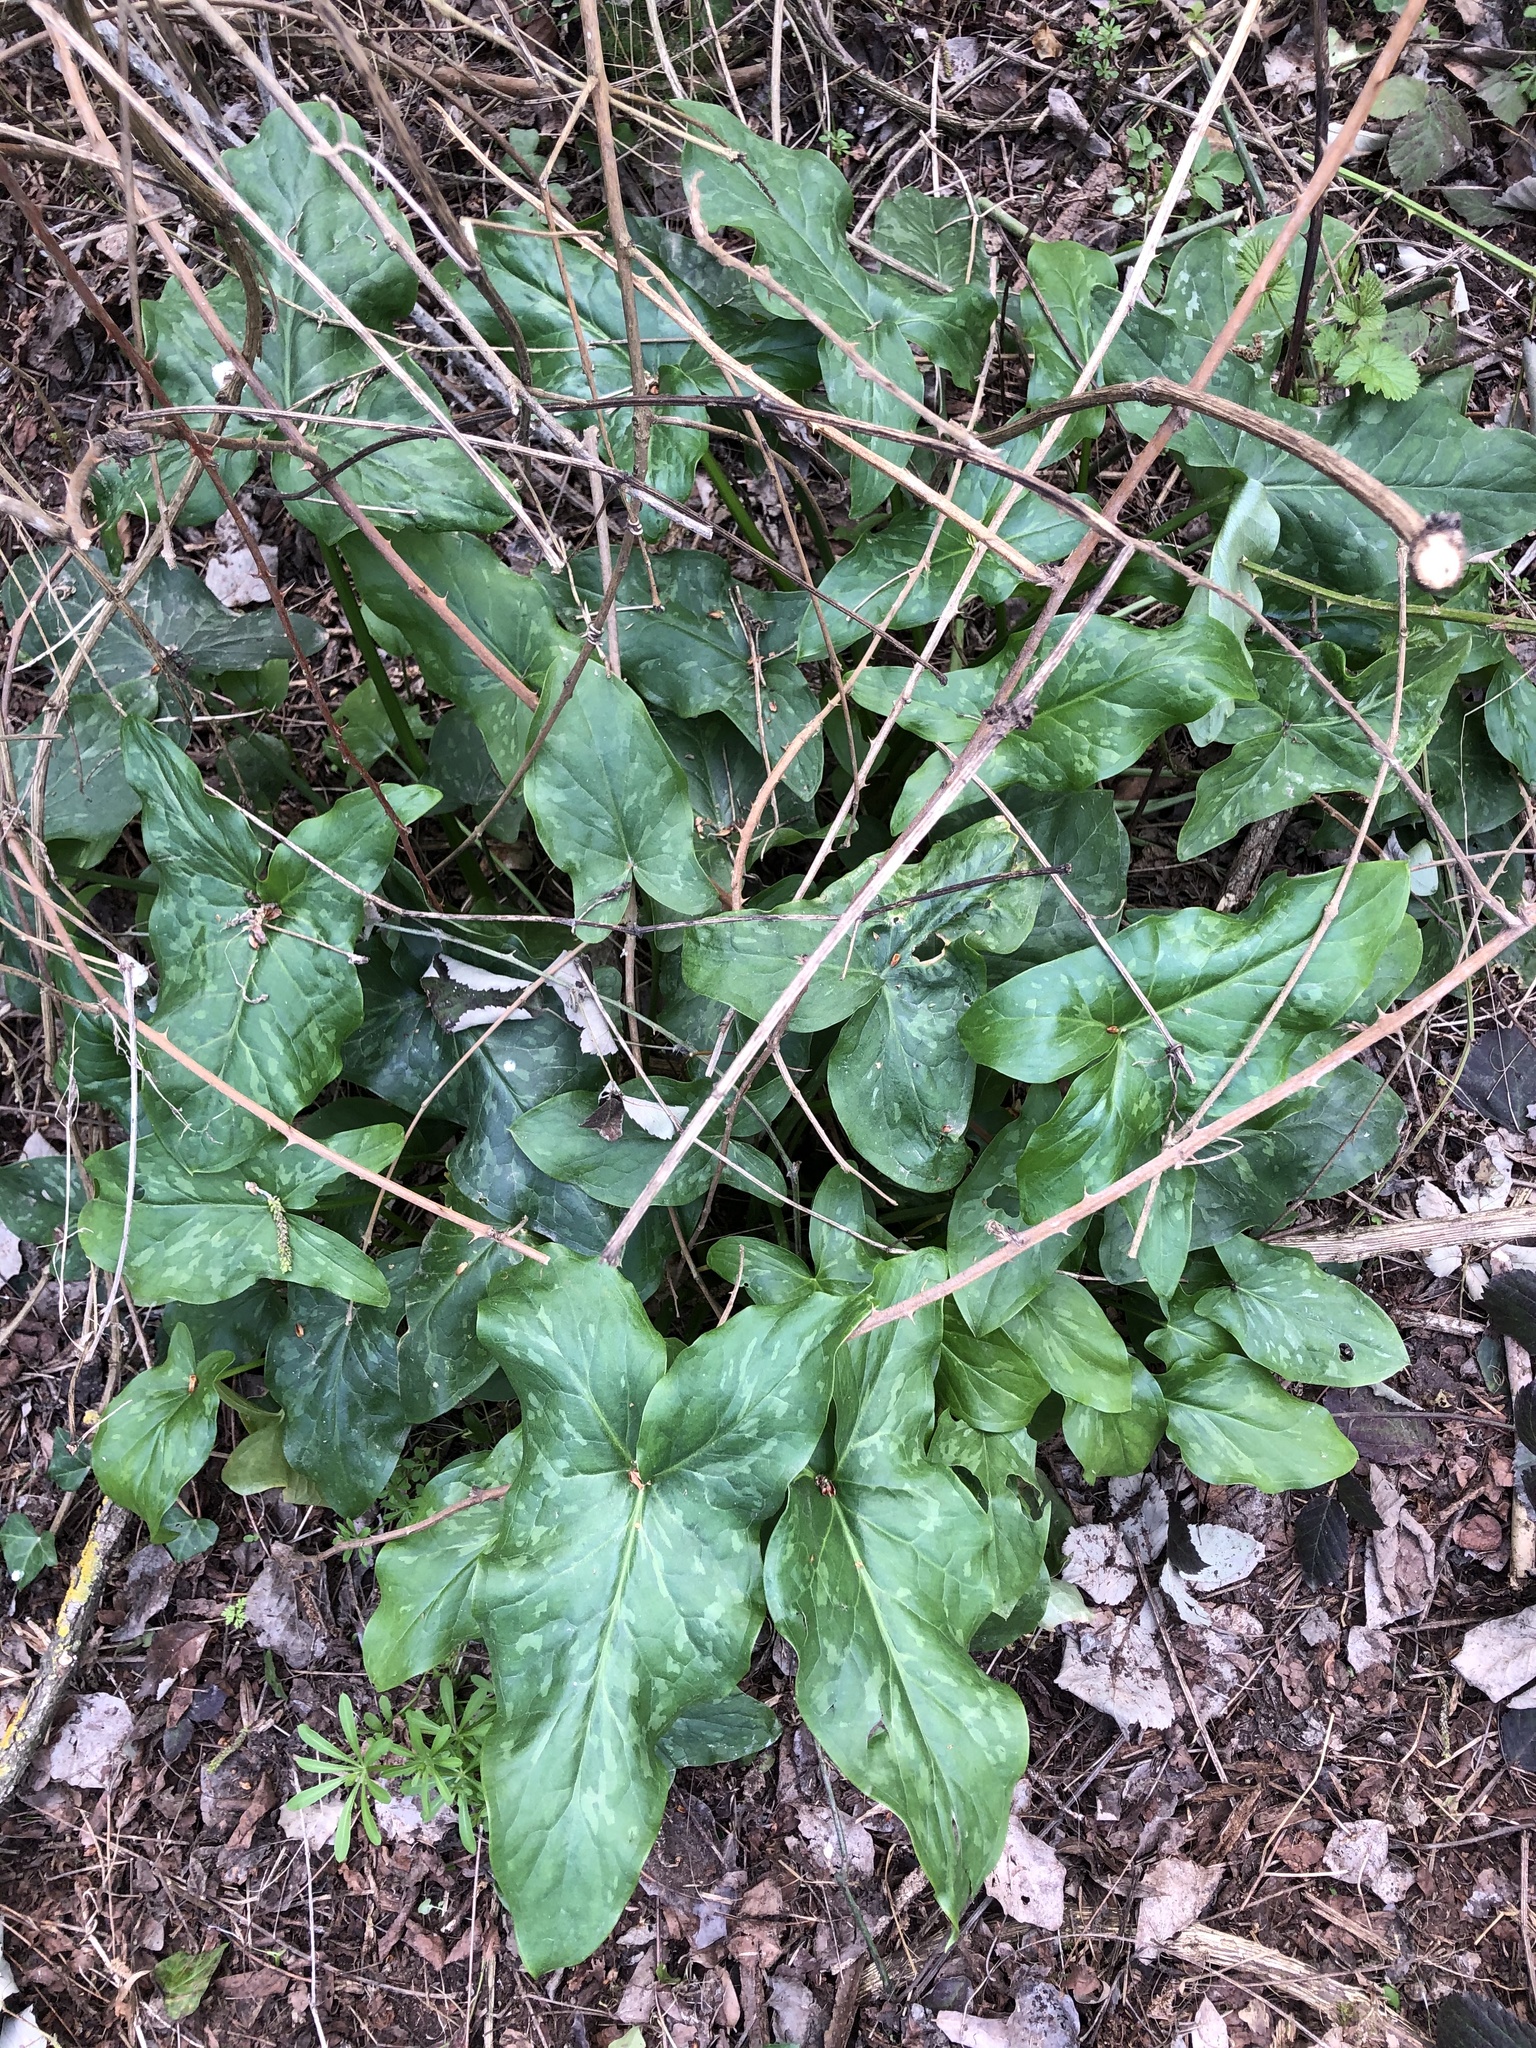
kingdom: Plantae
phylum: Tracheophyta
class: Liliopsida
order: Alismatales
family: Araceae
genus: Arum
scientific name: Arum italicum
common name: Italian lords-and-ladies
